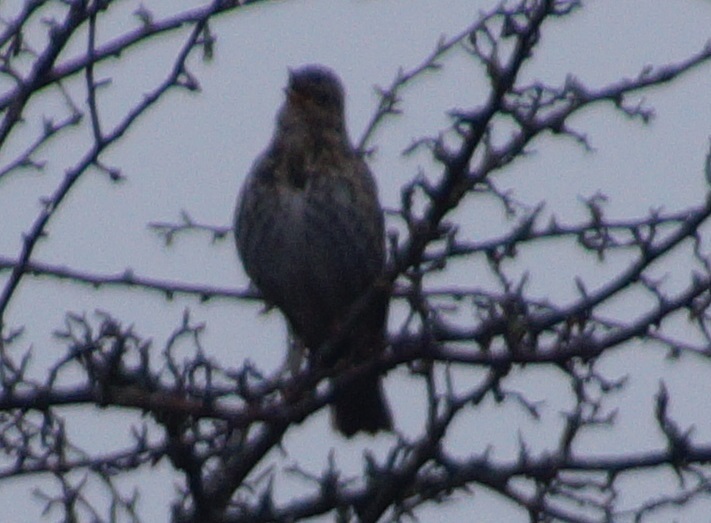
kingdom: Animalia
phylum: Chordata
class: Aves
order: Passeriformes
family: Turdidae
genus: Turdus
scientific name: Turdus philomelos
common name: Song thrush
